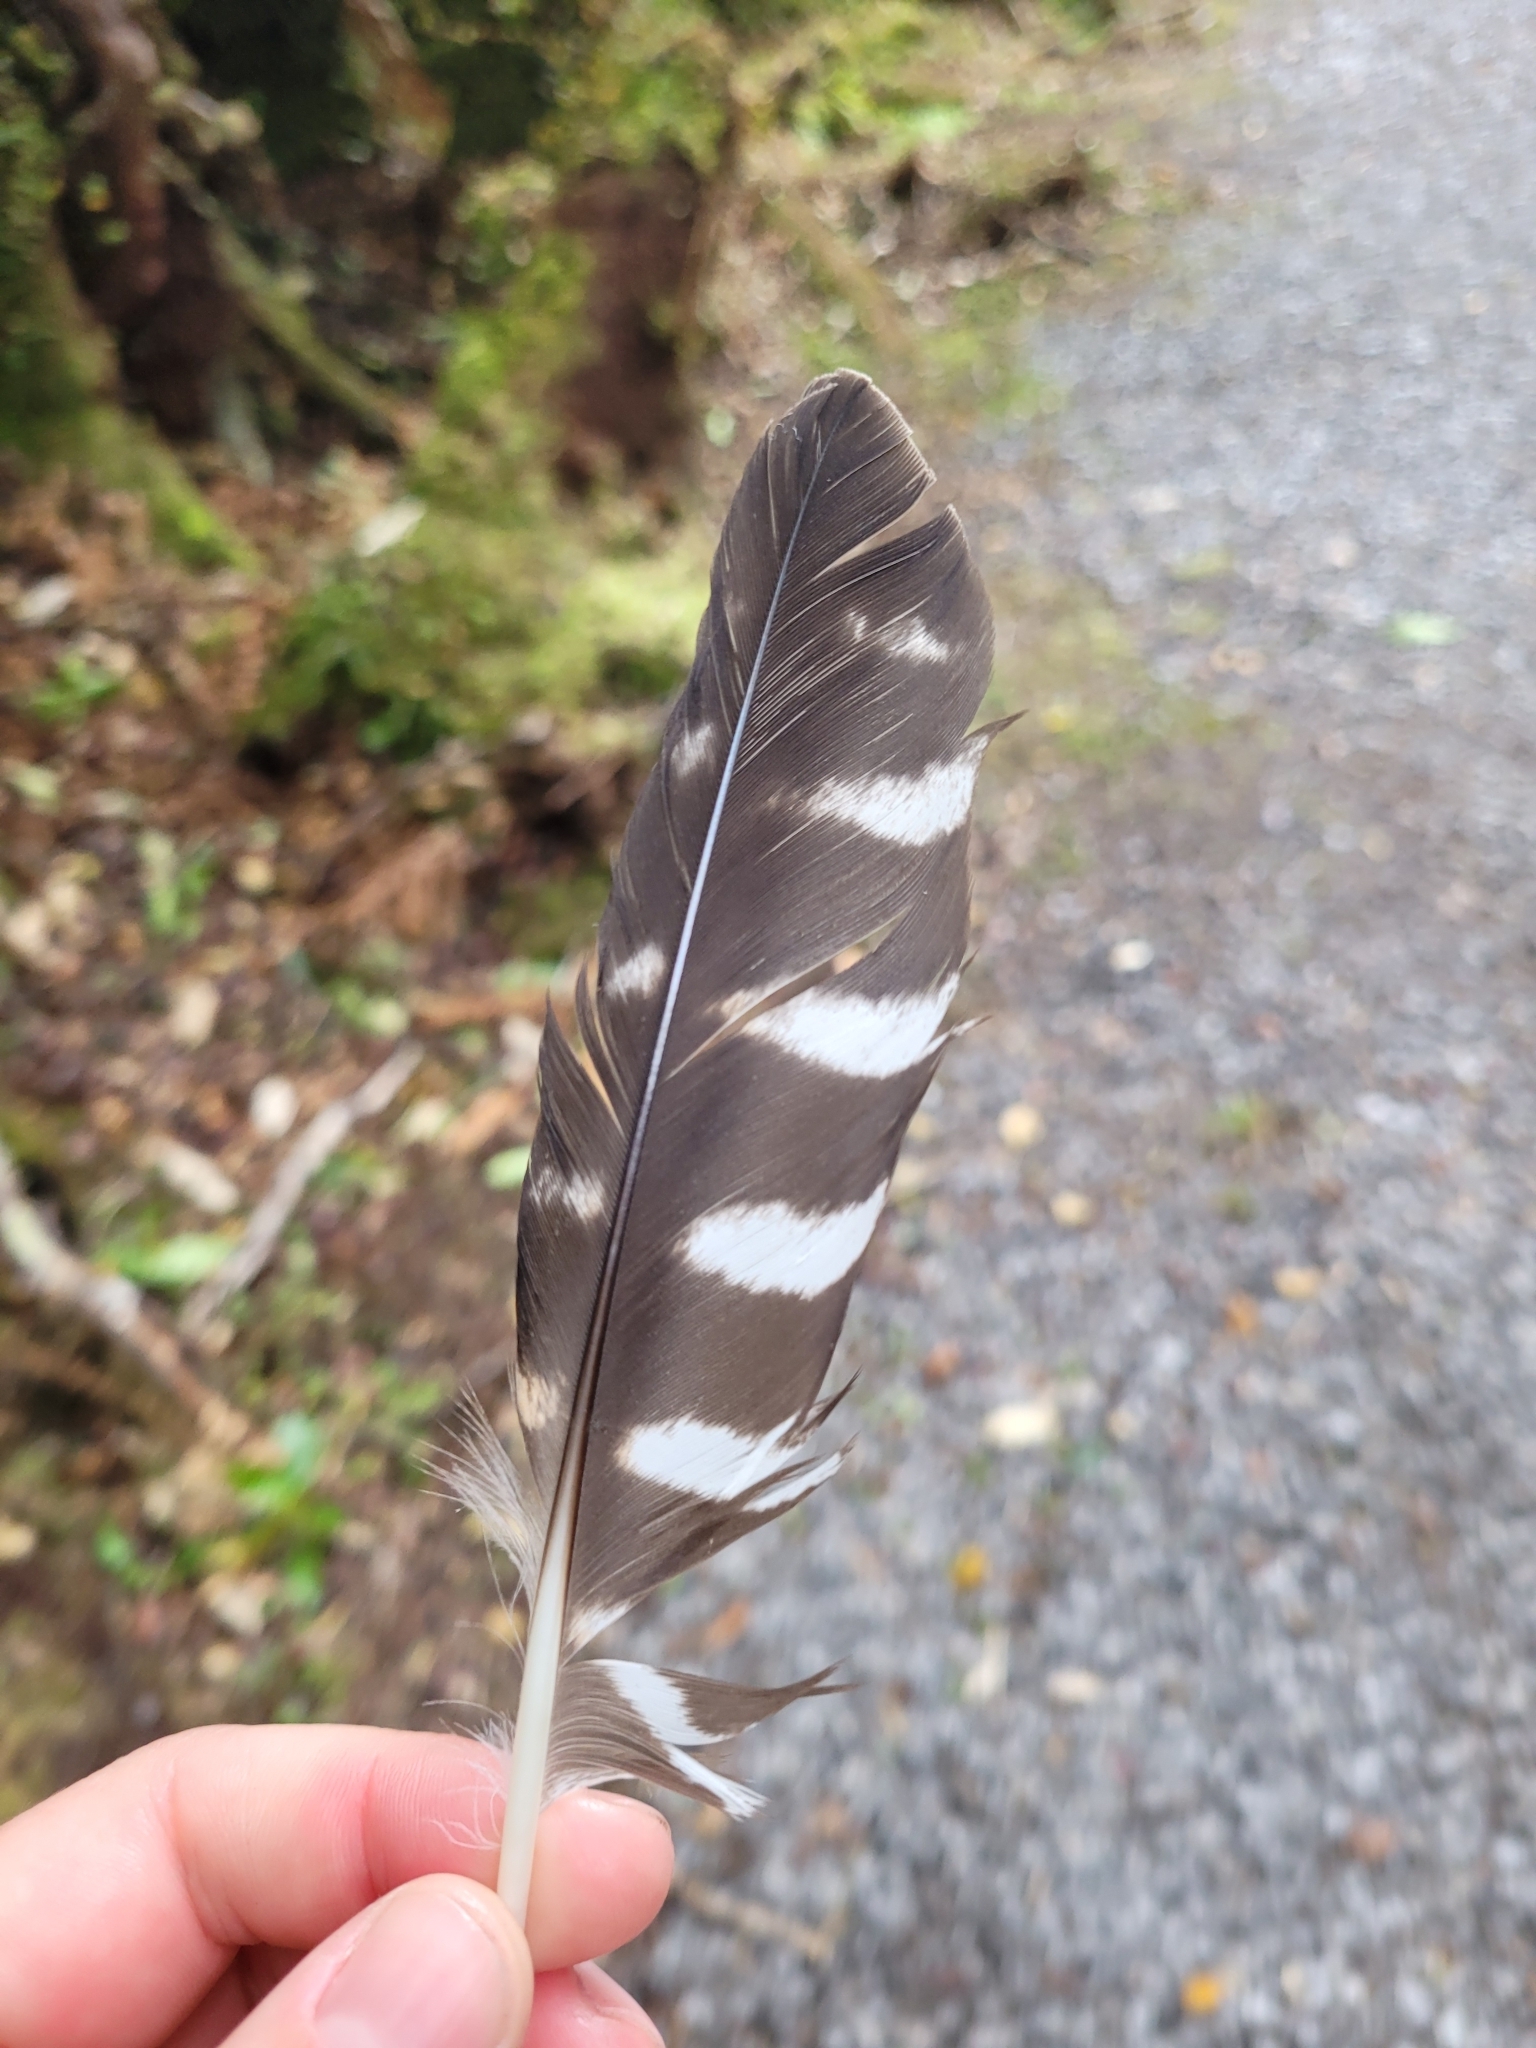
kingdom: Animalia
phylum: Chordata
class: Aves
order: Falconiformes
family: Falconidae
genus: Falco
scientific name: Falco novaeseelandiae
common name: New zealand falcon
